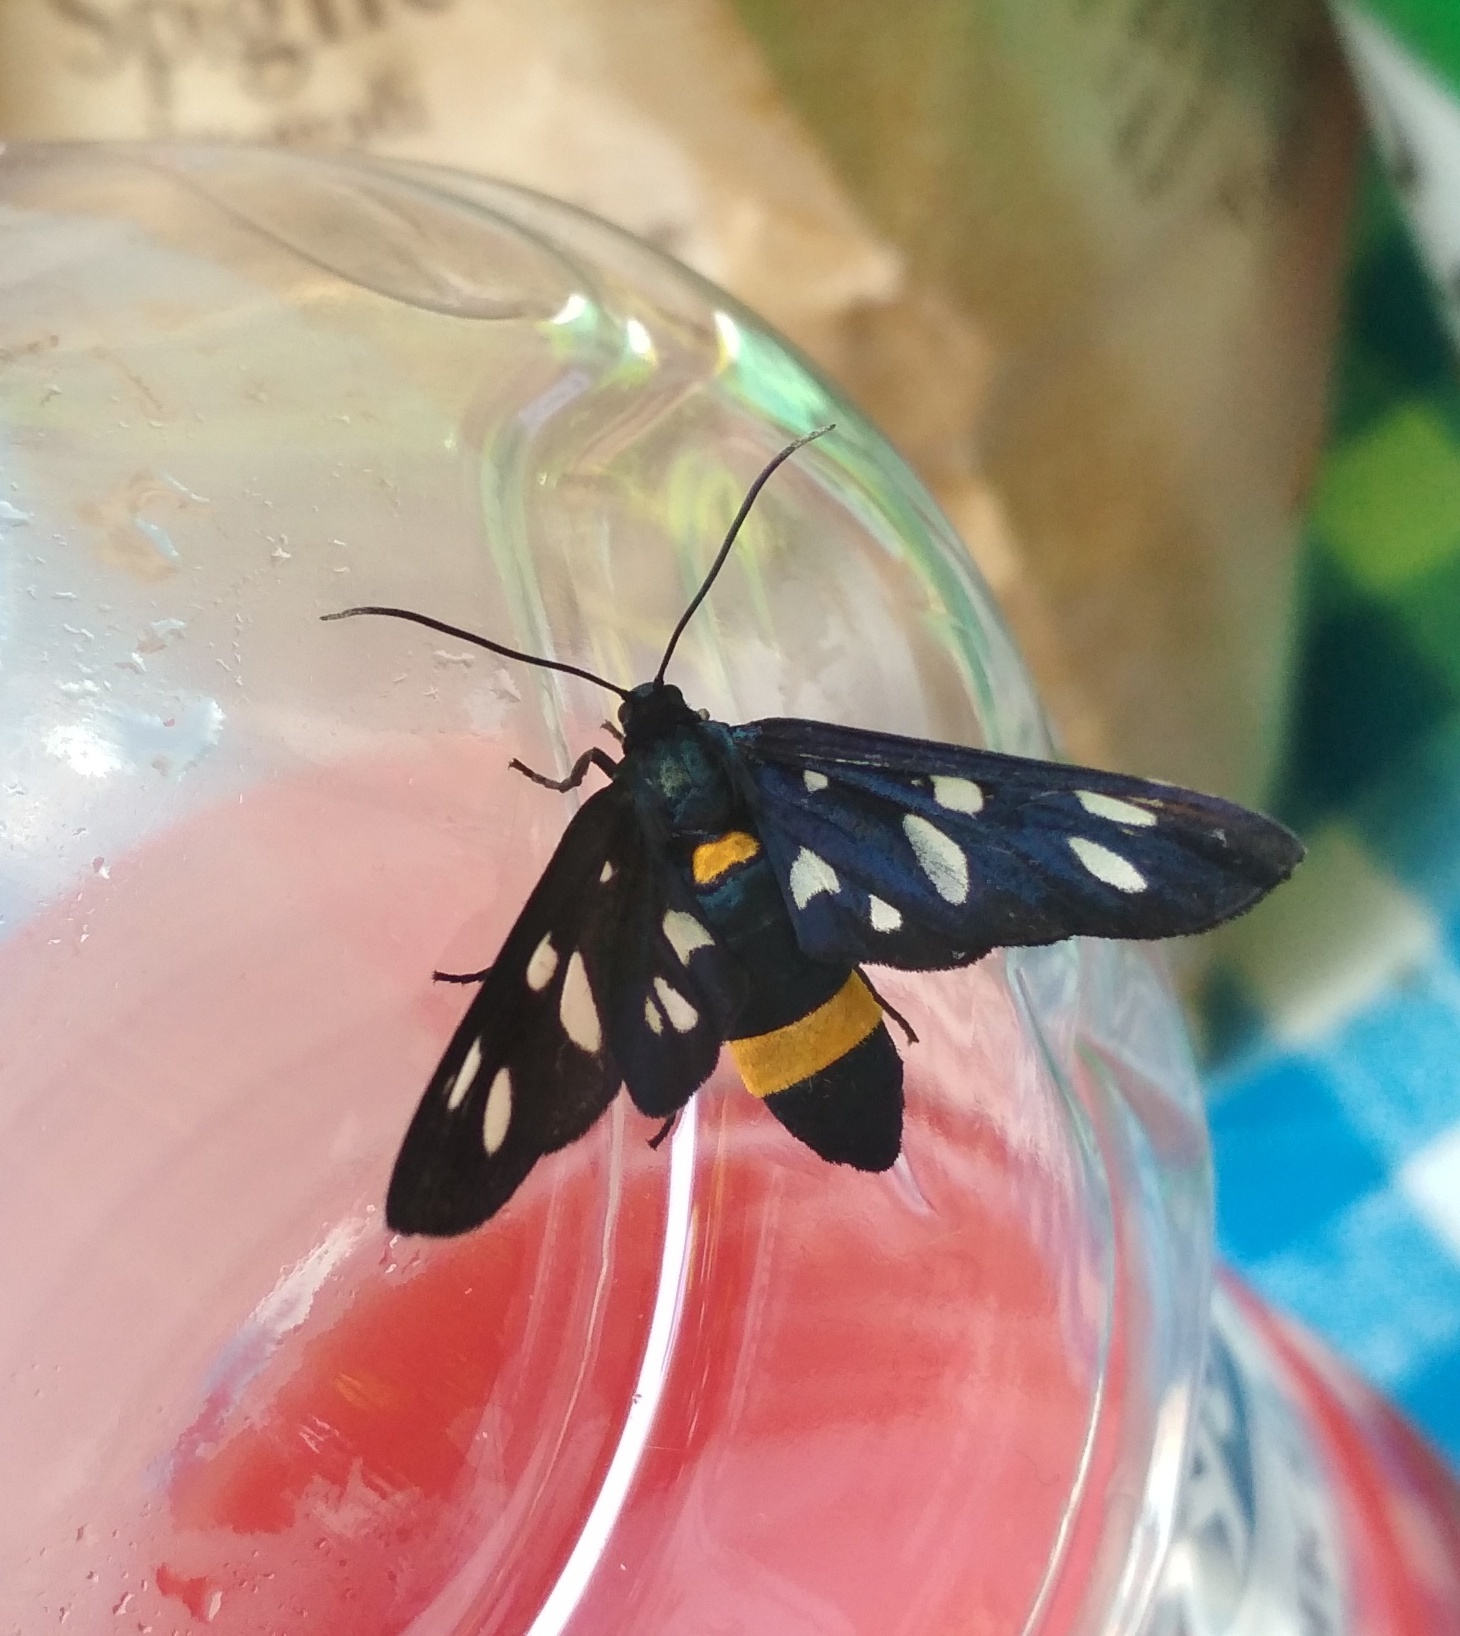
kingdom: Animalia
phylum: Arthropoda
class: Insecta
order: Lepidoptera
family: Erebidae
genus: Amata
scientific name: Amata phegea
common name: Nine-spotted
